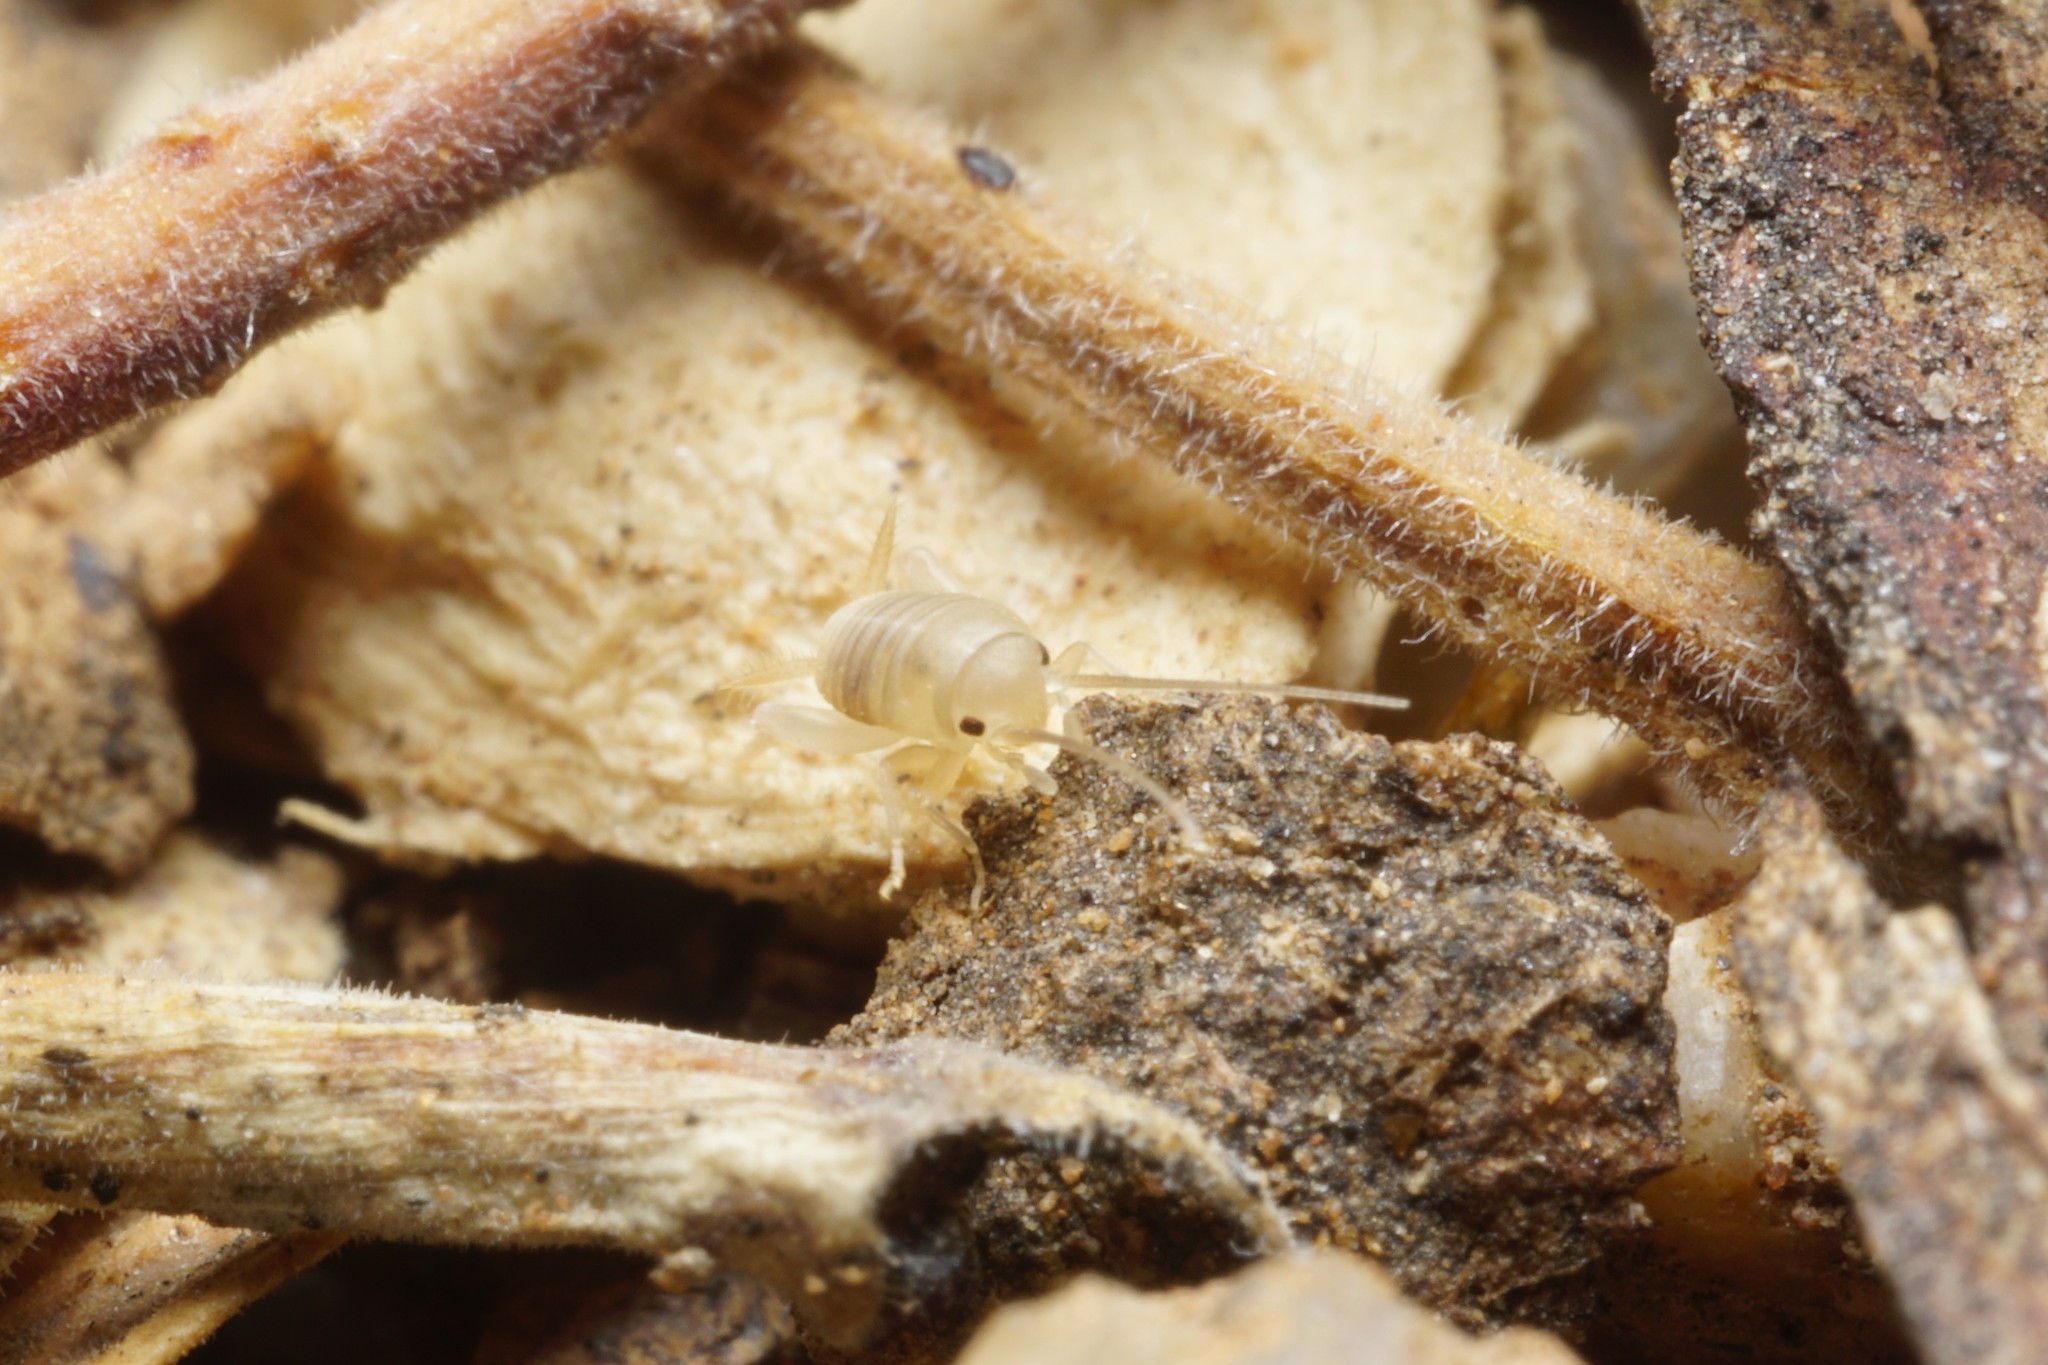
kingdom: Animalia
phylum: Arthropoda
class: Insecta
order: Orthoptera
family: Myrmecophilidae
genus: Myrmecophilus
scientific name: Myrmecophilus
